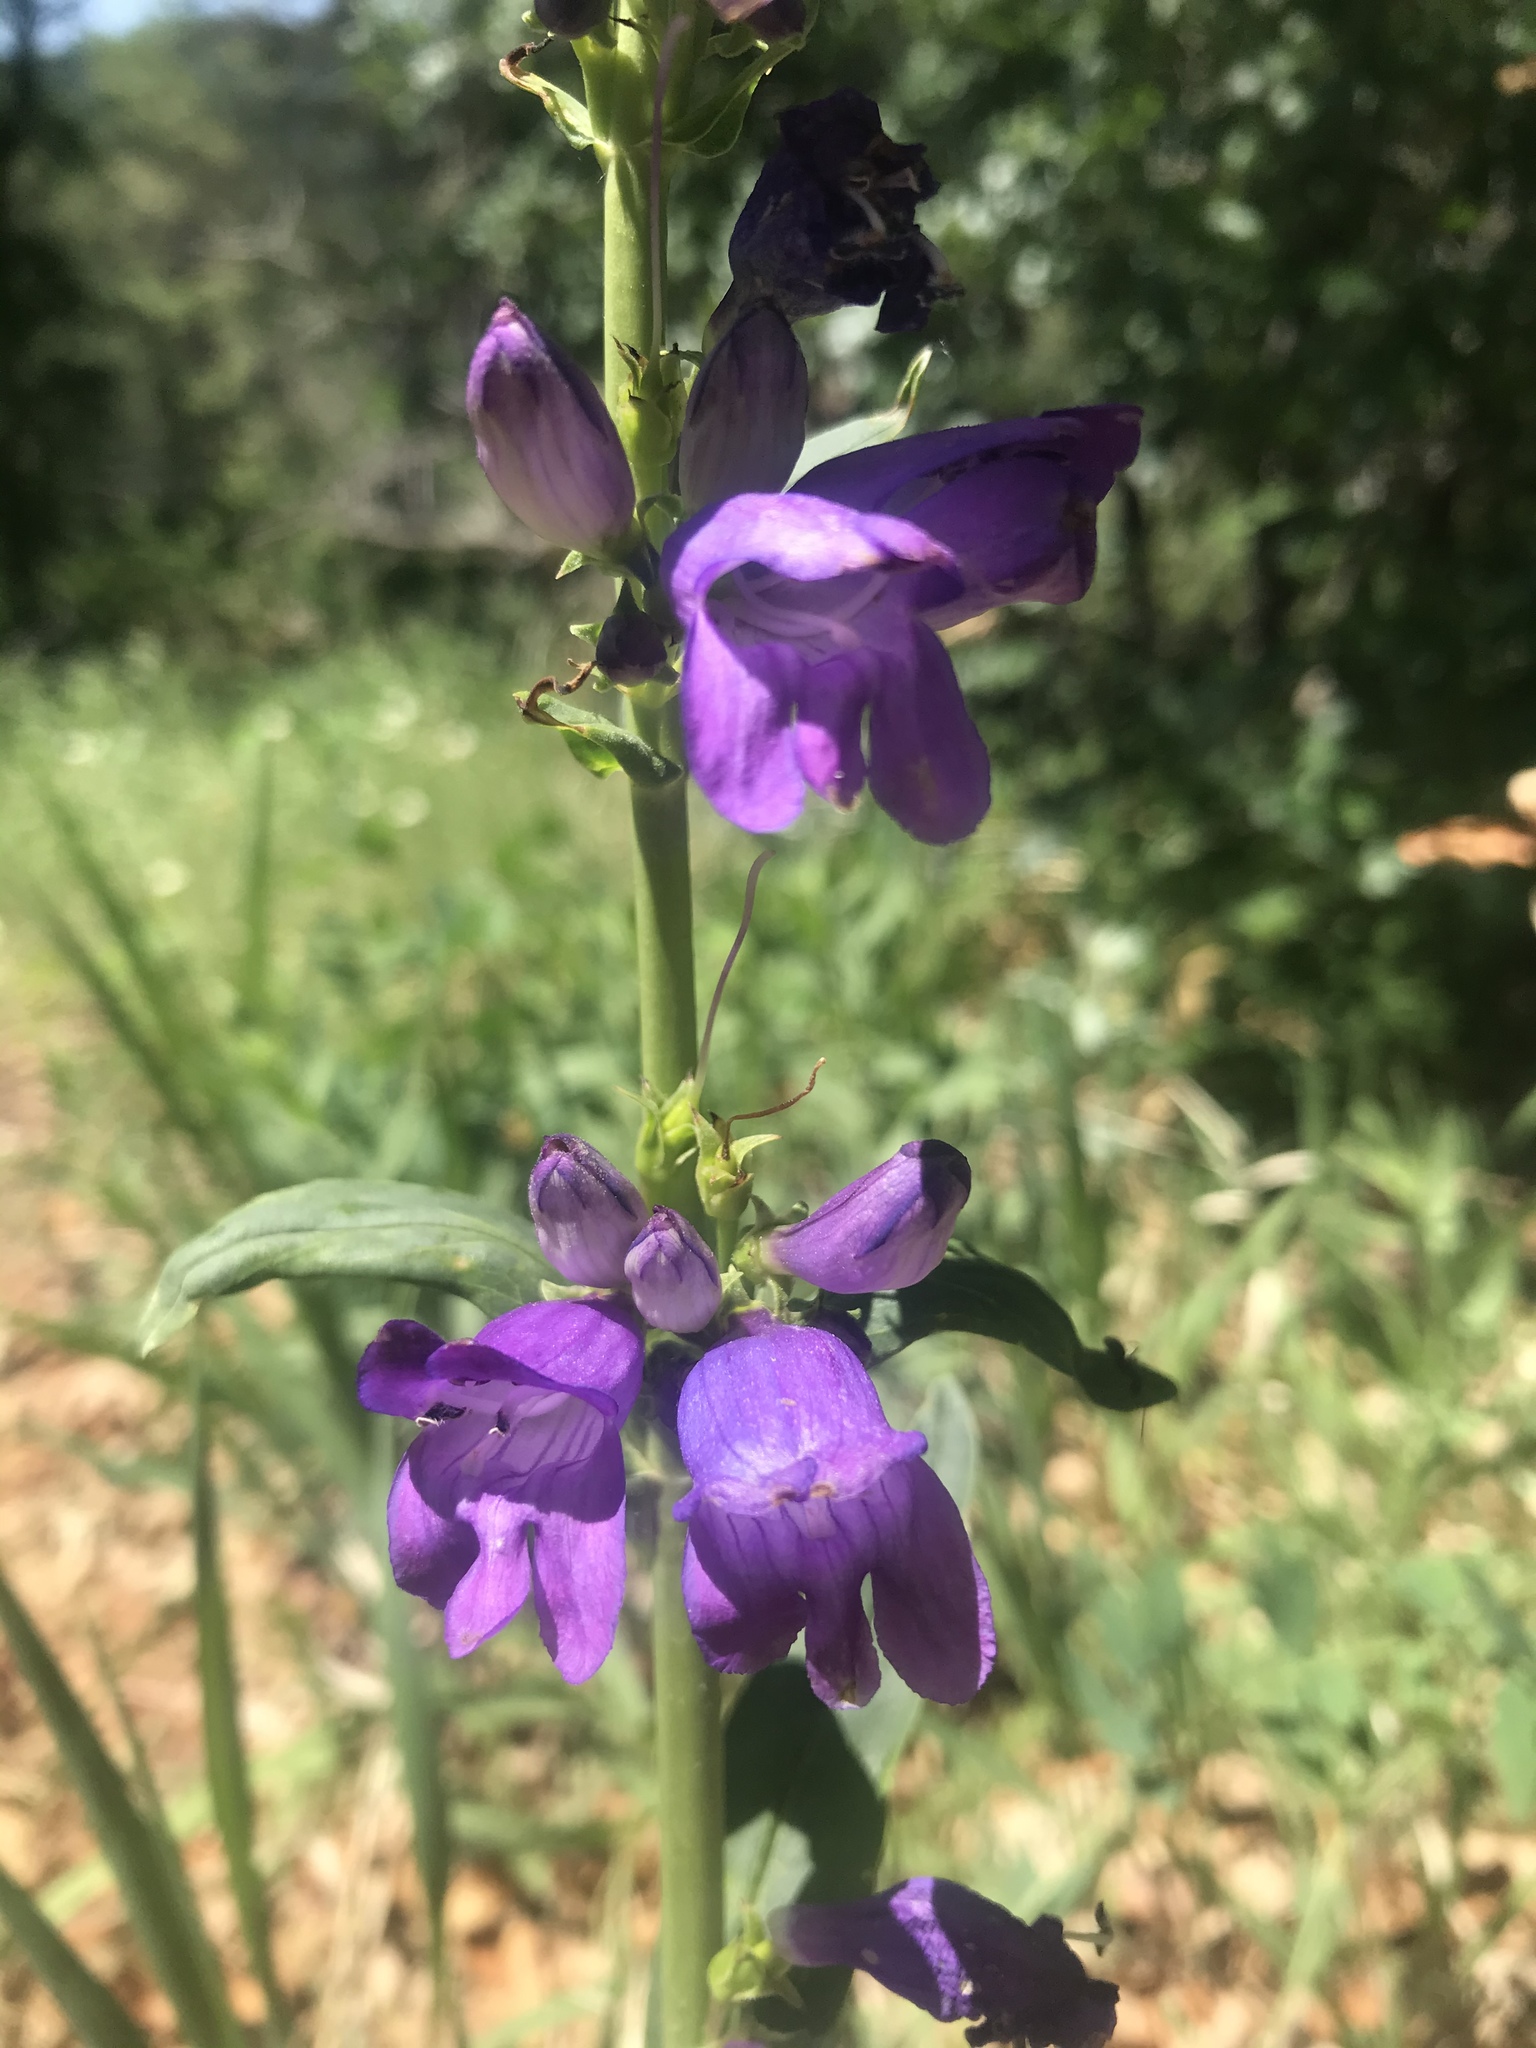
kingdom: Plantae
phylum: Tracheophyta
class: Magnoliopsida
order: Lamiales
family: Plantaginaceae
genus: Penstemon
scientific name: Penstemon strictus
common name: Rocky mountain penstemon
